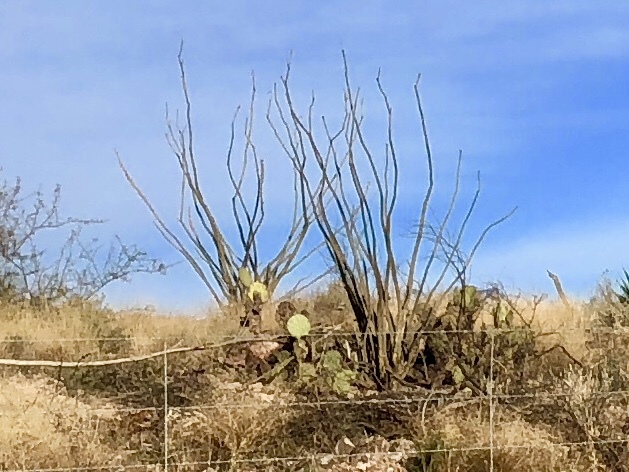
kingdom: Plantae
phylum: Tracheophyta
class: Magnoliopsida
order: Ericales
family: Fouquieriaceae
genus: Fouquieria
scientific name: Fouquieria splendens
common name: Vine-cactus
